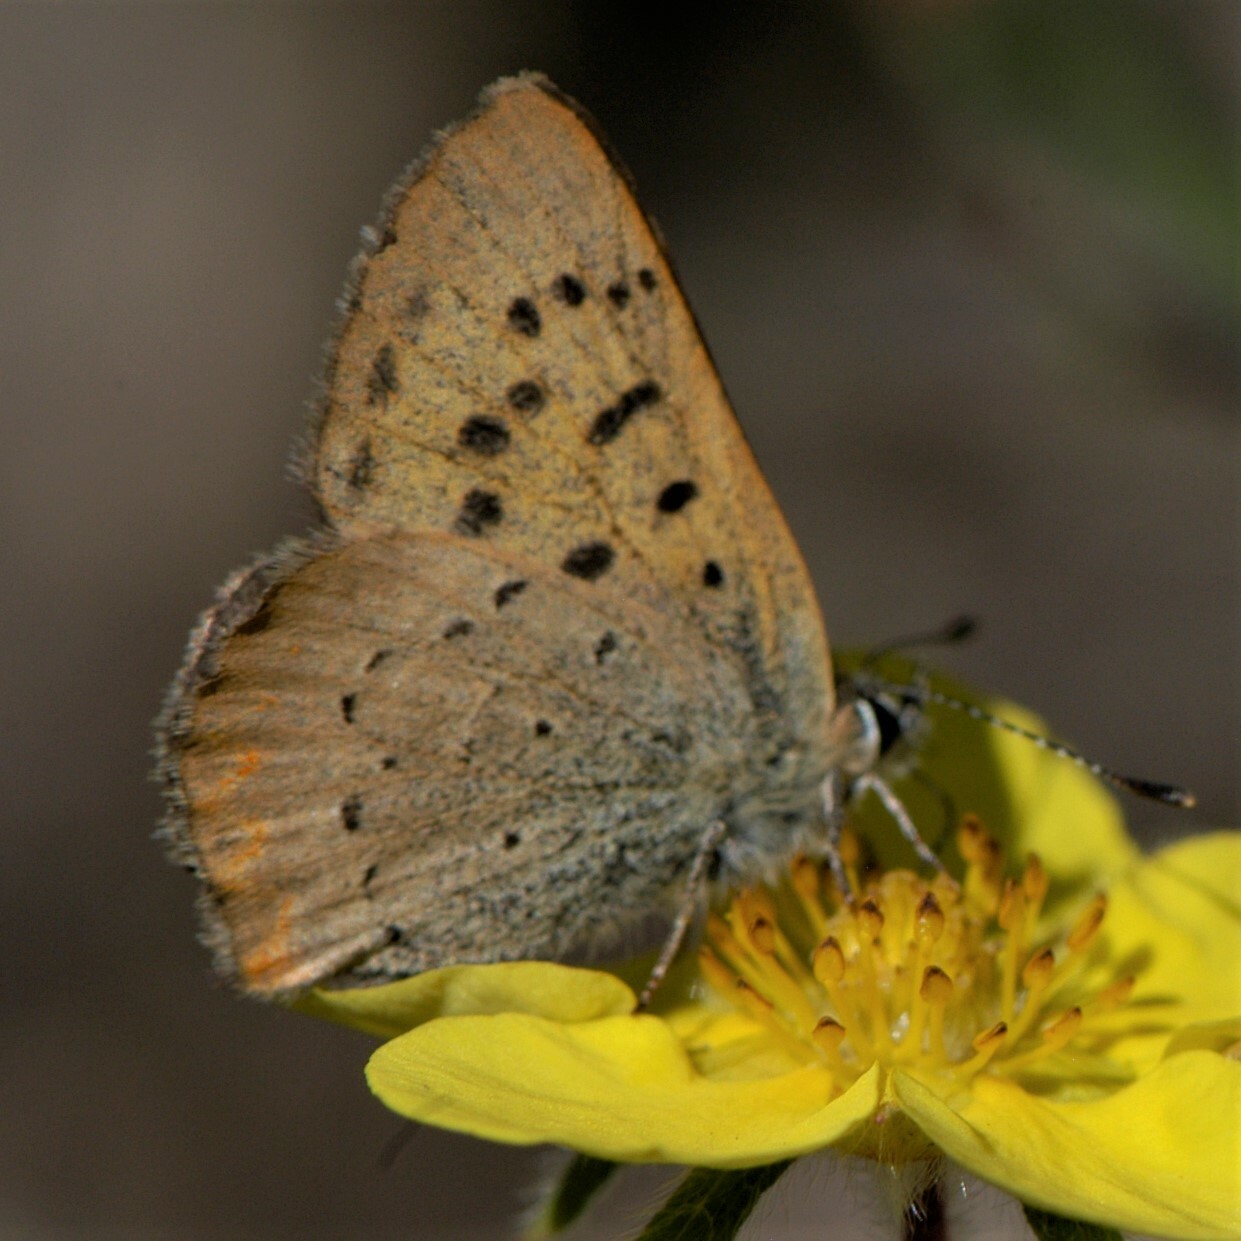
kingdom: Animalia
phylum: Arthropoda
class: Insecta
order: Lepidoptera
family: Lycaenidae
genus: Tharsalea
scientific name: Tharsalea dorcas
